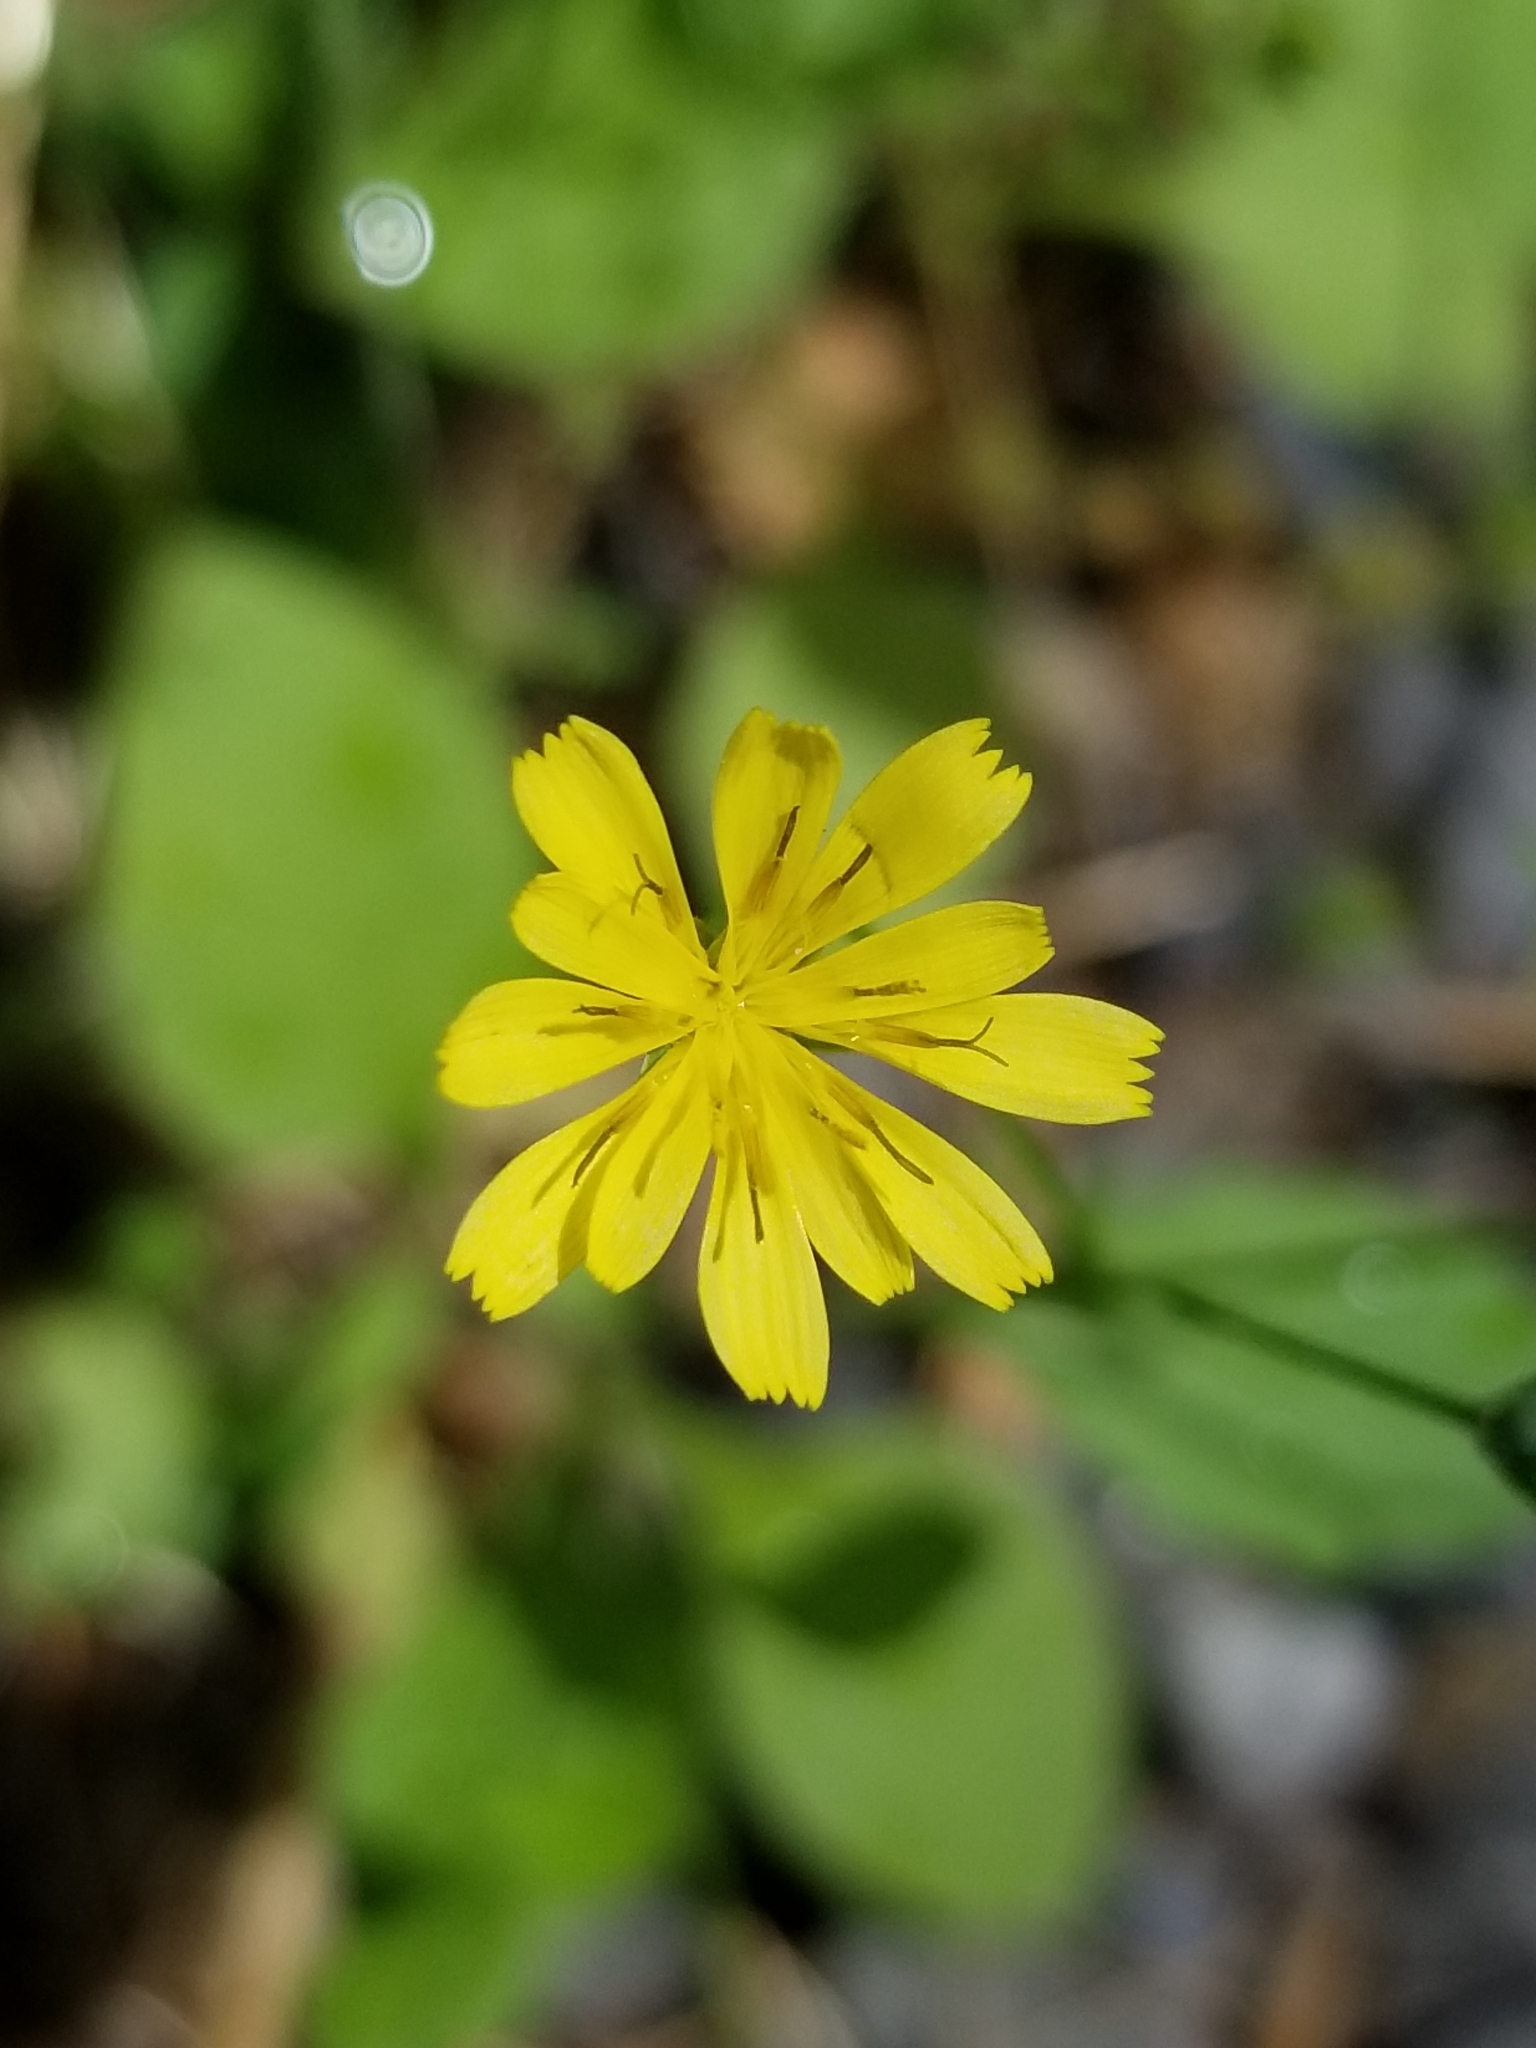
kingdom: Plantae
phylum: Tracheophyta
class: Magnoliopsida
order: Asterales
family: Asteraceae
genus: Lapsana
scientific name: Lapsana communis
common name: Nipplewort
